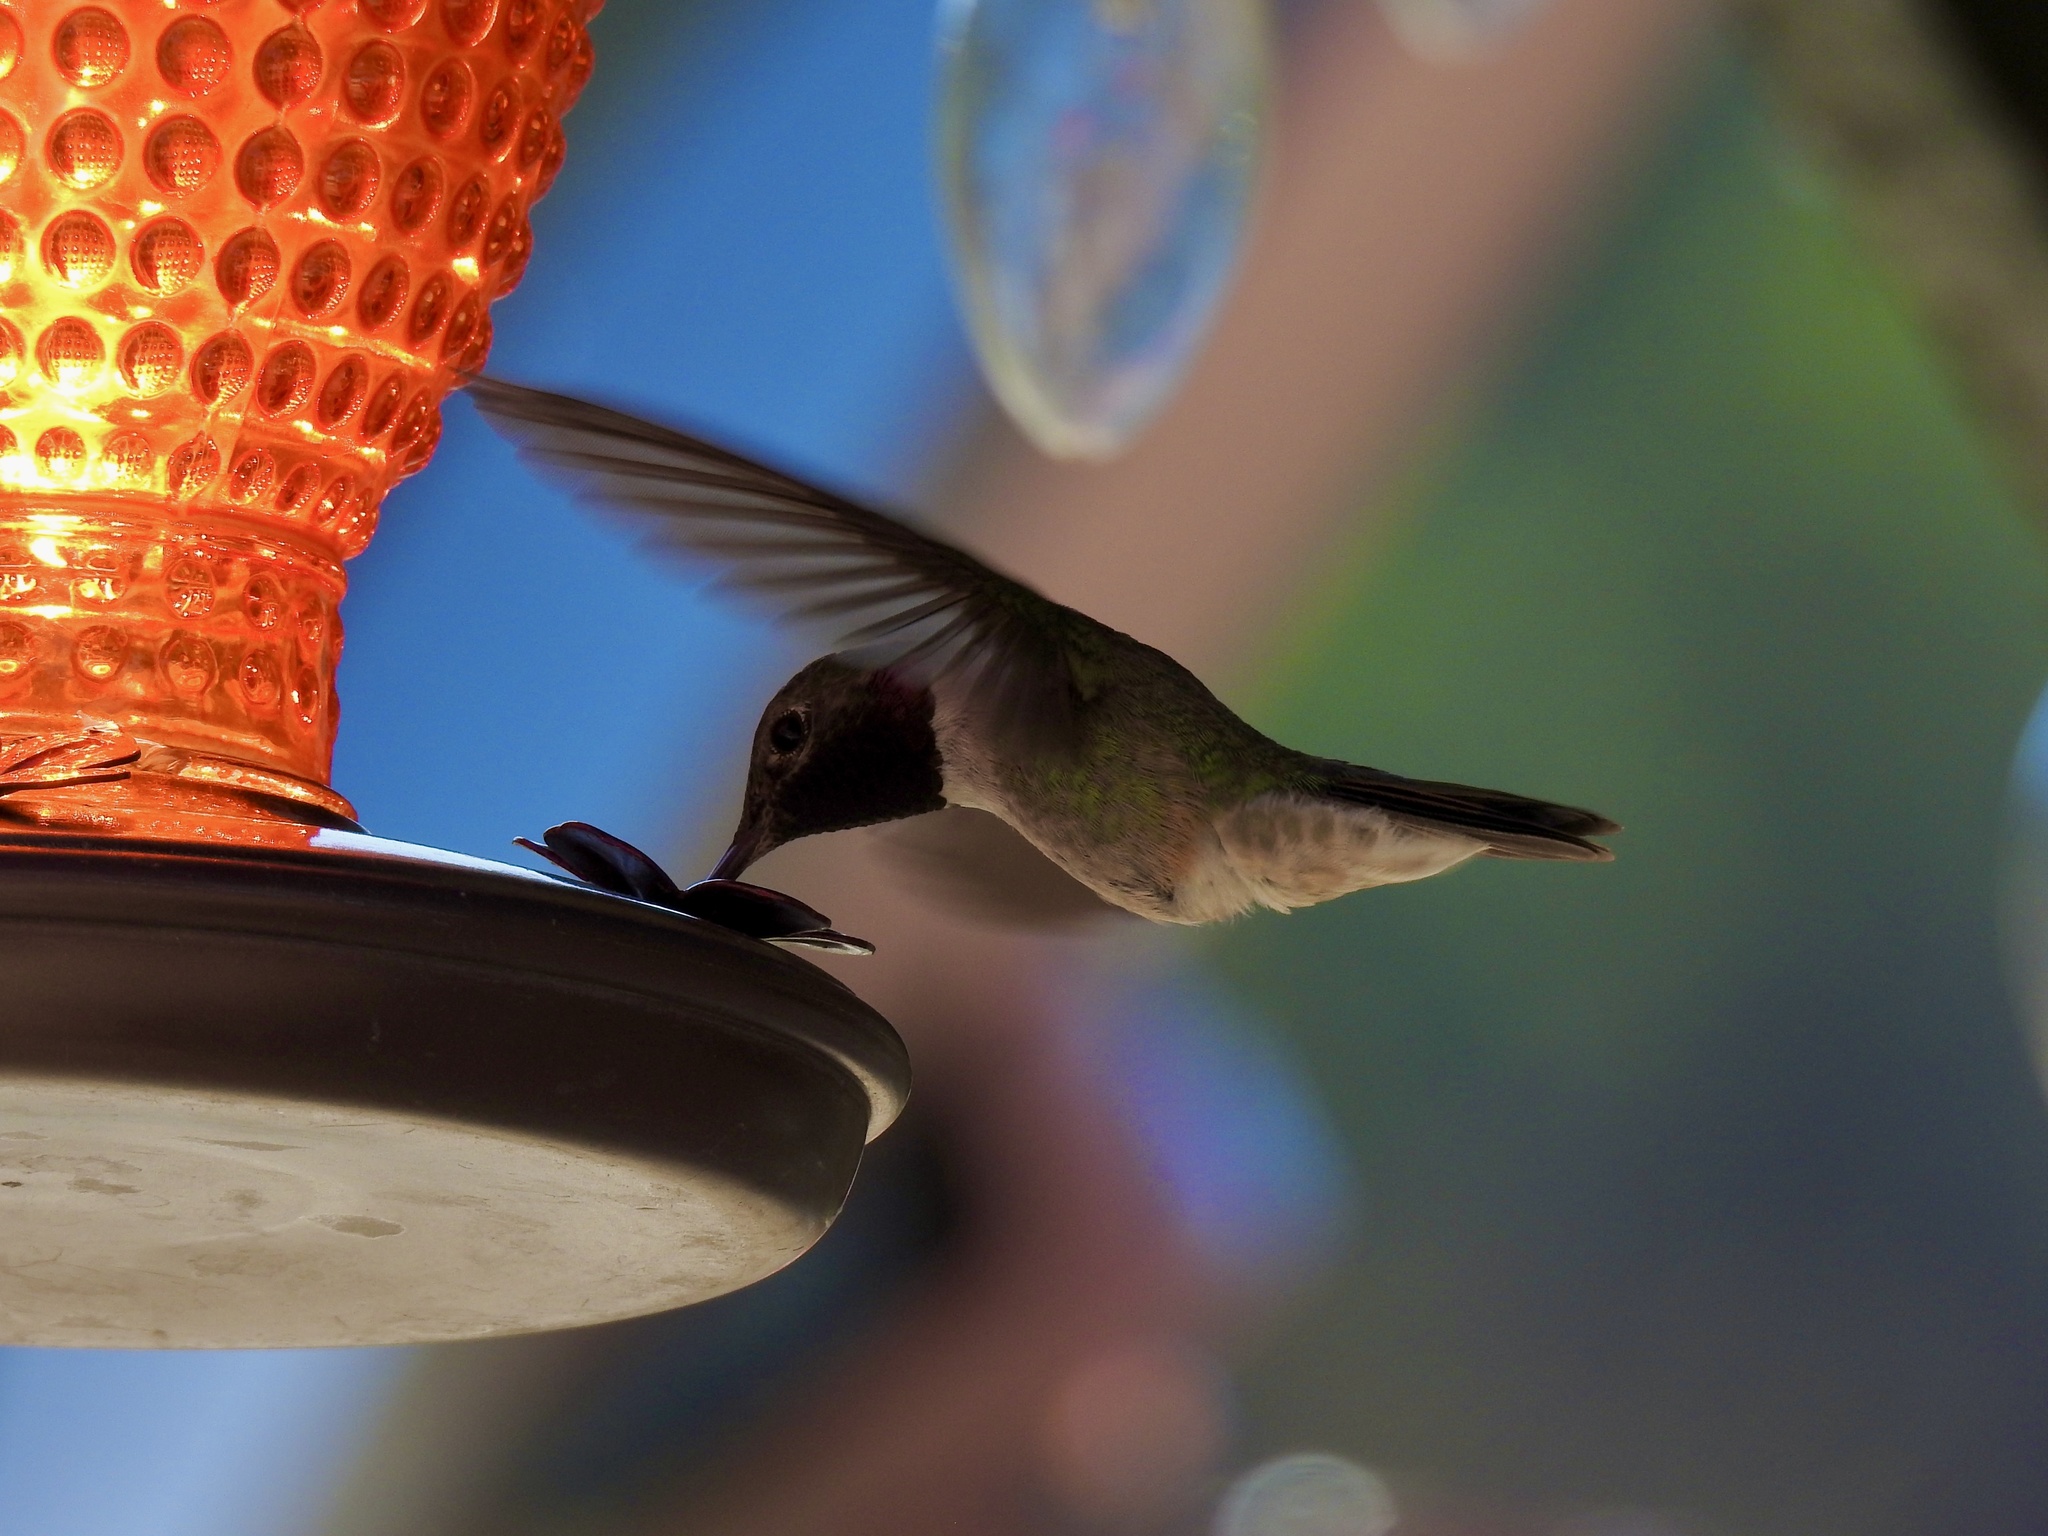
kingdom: Animalia
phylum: Chordata
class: Aves
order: Apodiformes
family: Trochilidae
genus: Selasphorus
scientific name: Selasphorus platycercus
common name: Broad-tailed hummingbird
